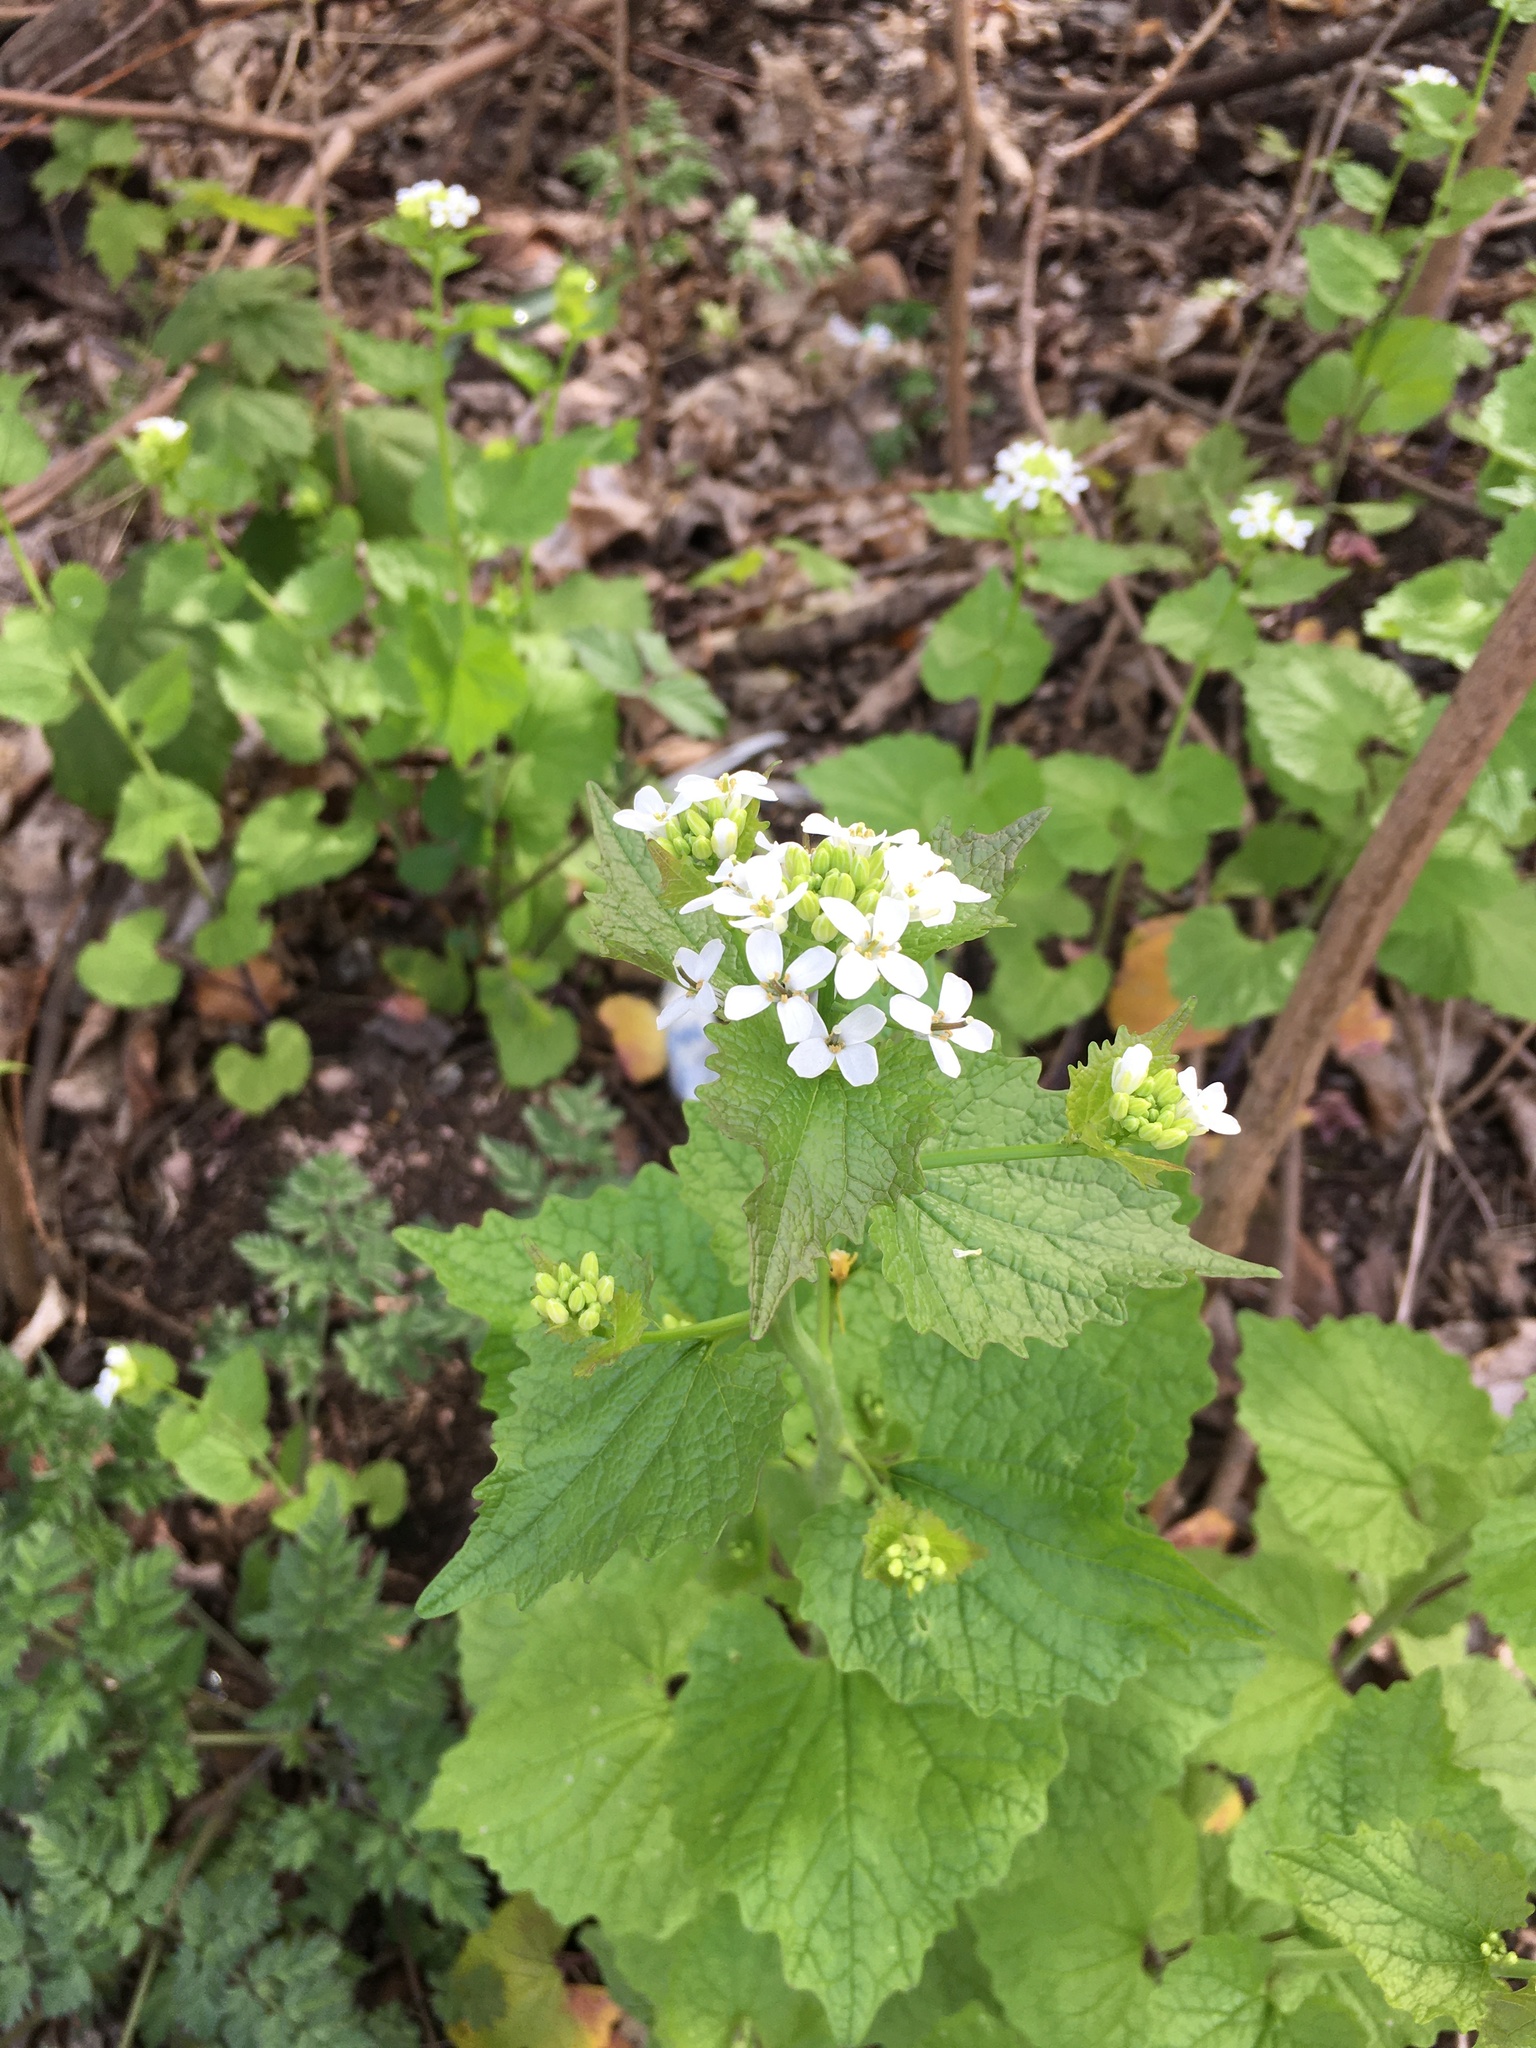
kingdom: Plantae
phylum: Tracheophyta
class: Magnoliopsida
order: Brassicales
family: Brassicaceae
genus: Alliaria
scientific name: Alliaria petiolata
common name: Garlic mustard
